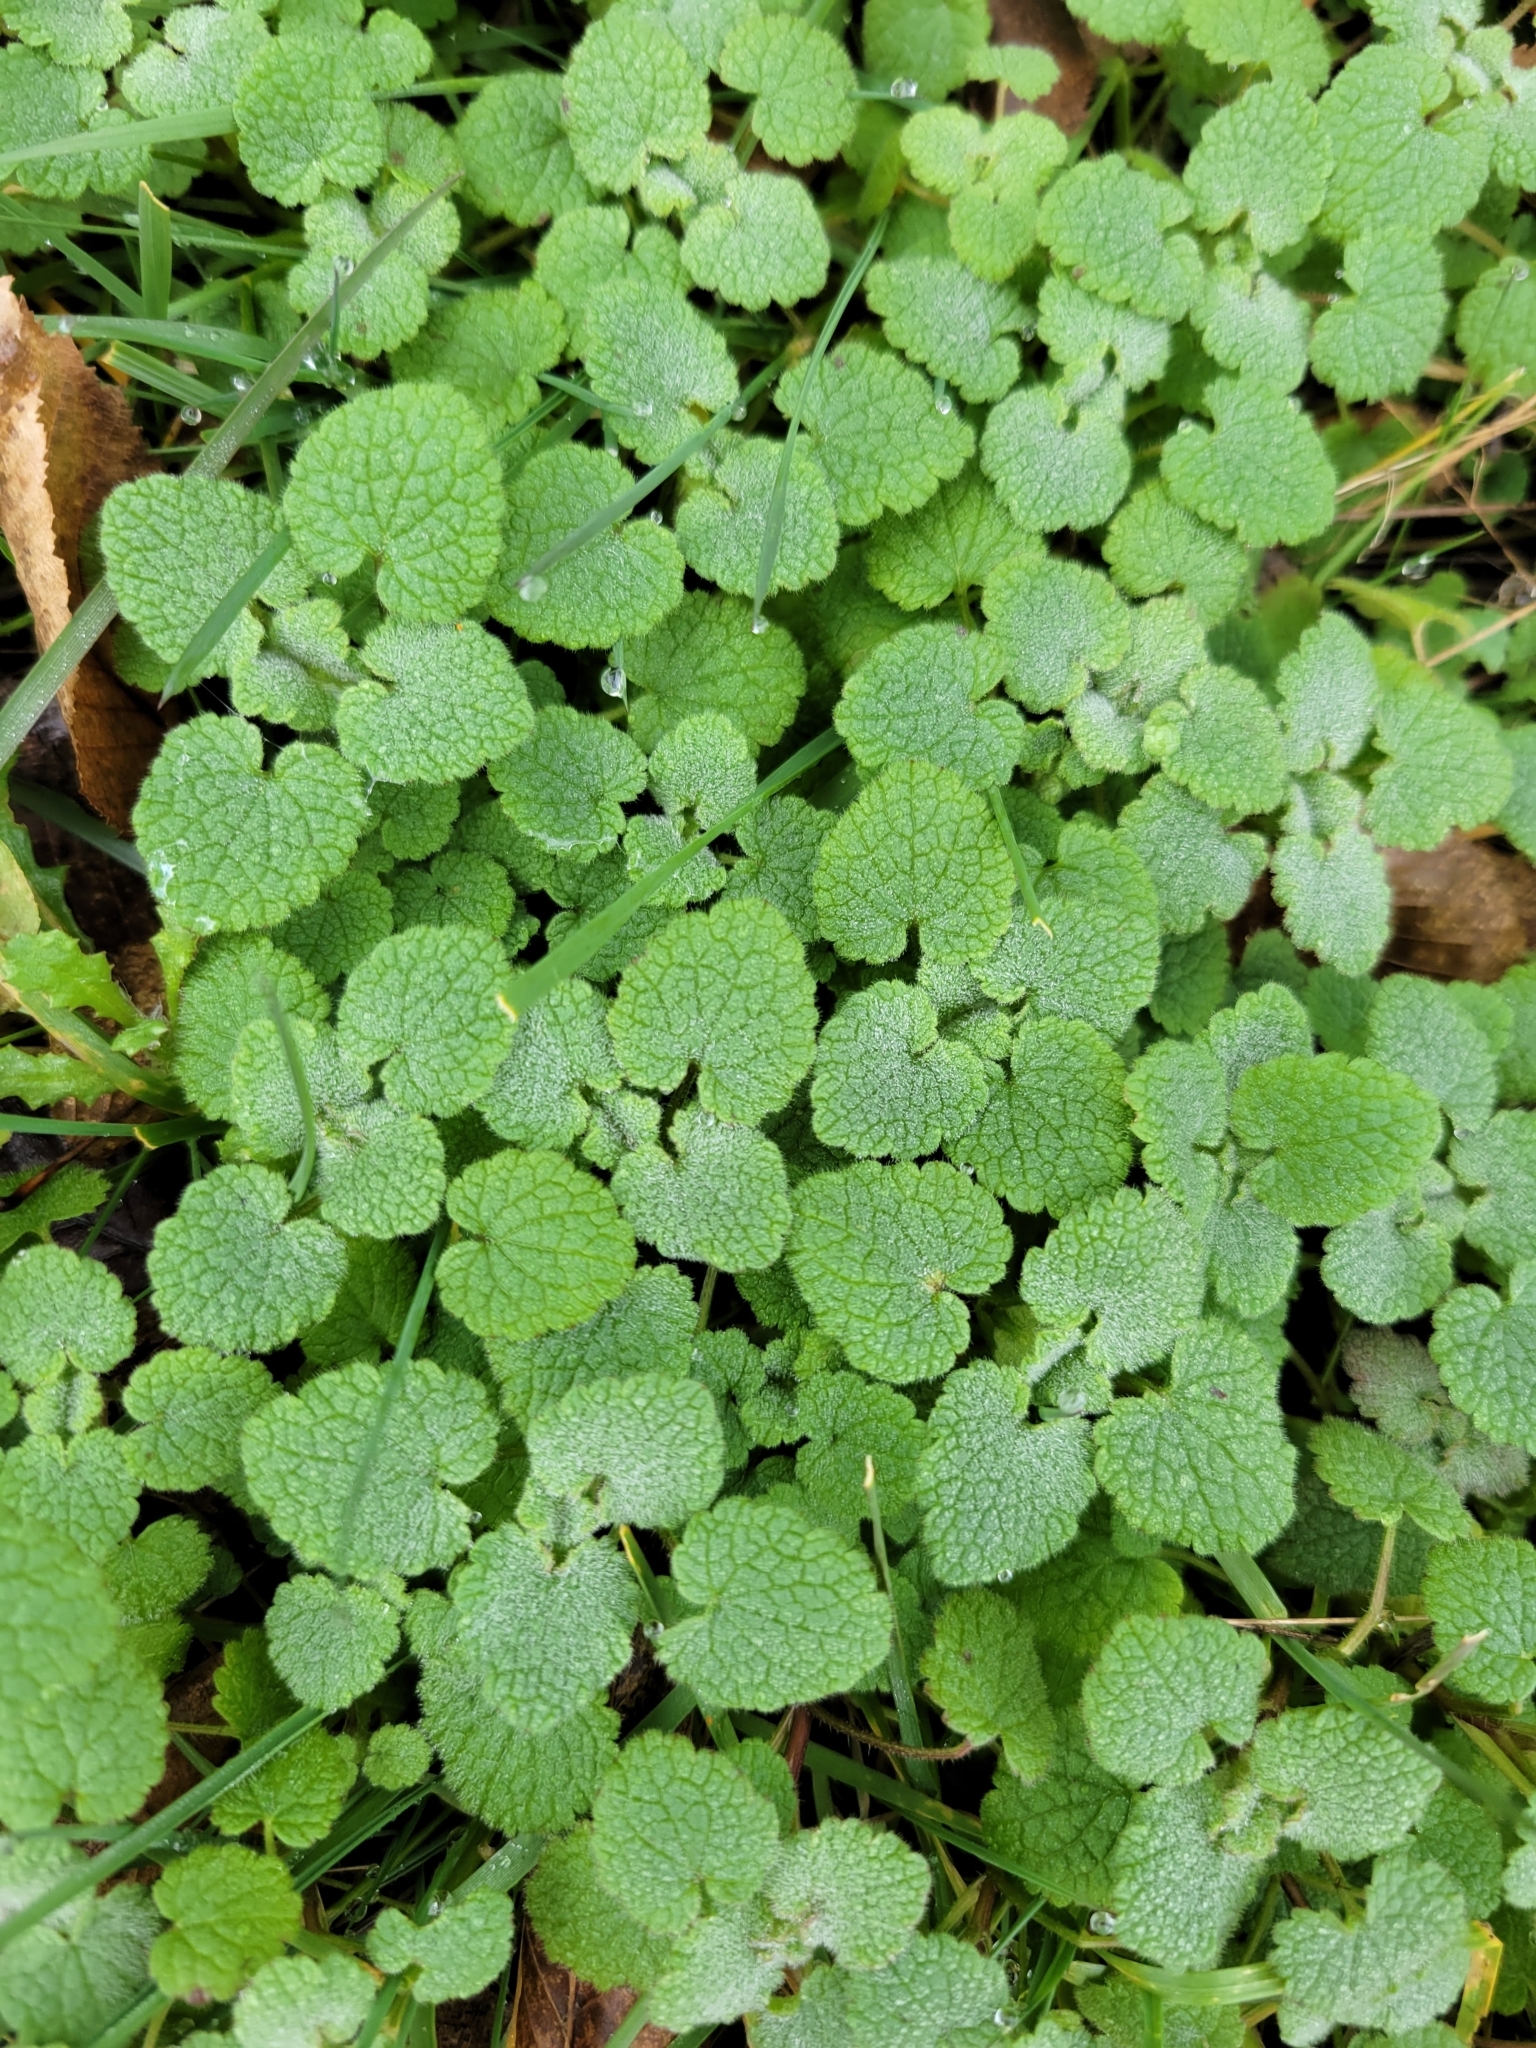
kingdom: Plantae
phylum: Tracheophyta
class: Magnoliopsida
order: Lamiales
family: Lamiaceae
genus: Lamium
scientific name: Lamium purpureum
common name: Red dead-nettle
